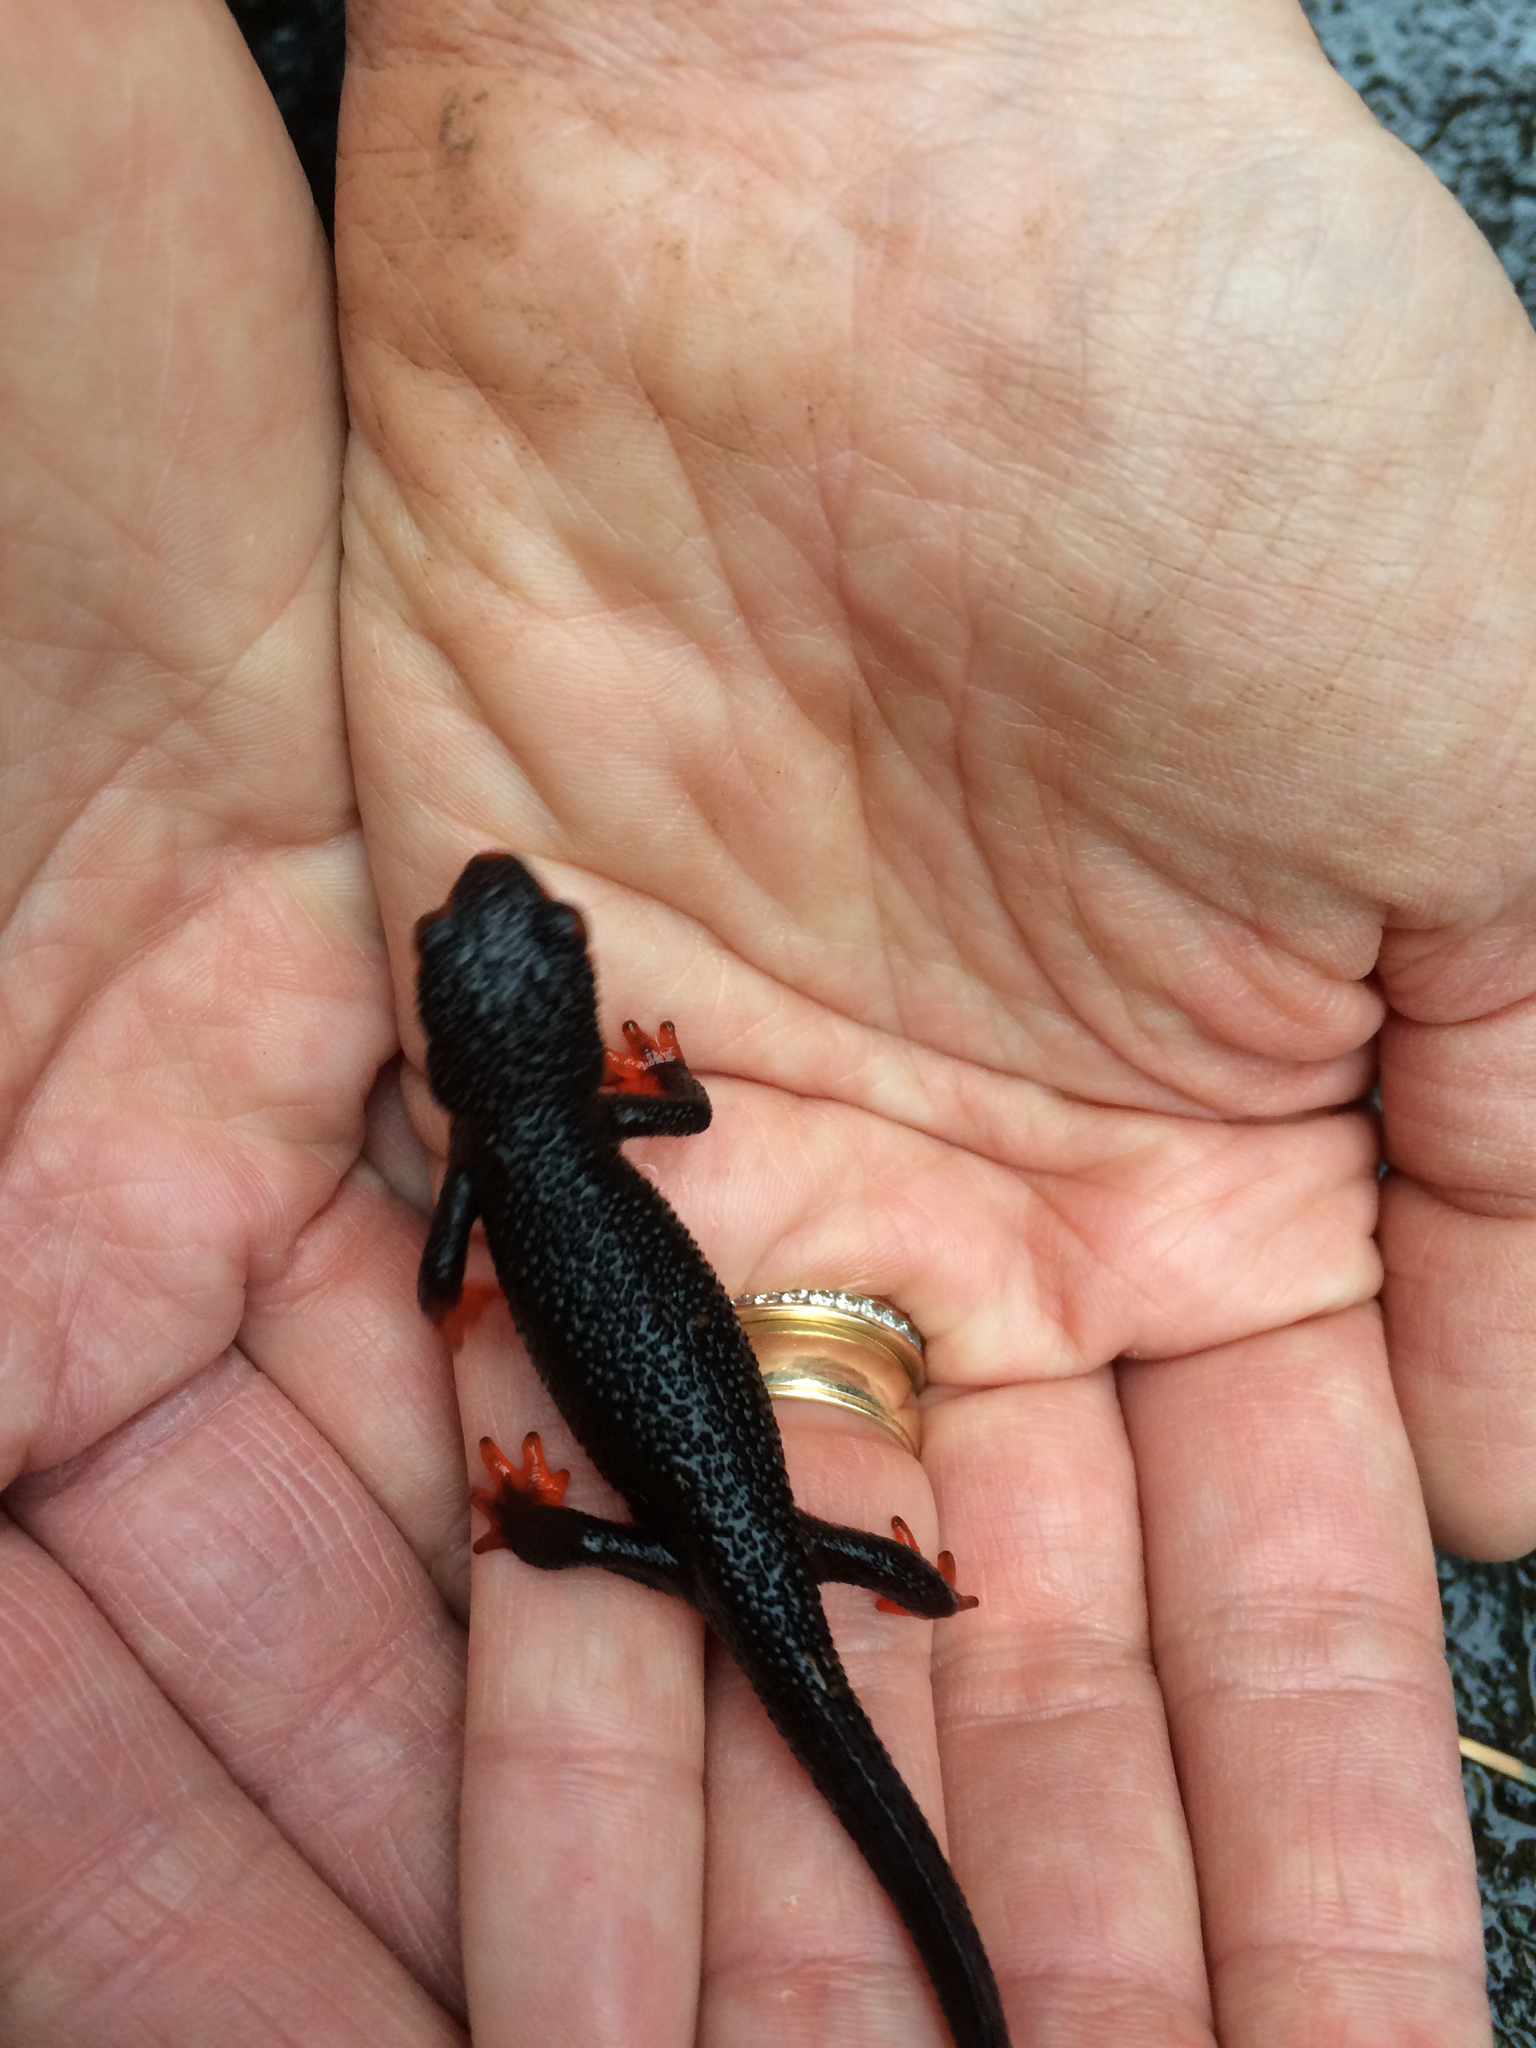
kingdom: Animalia
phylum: Chordata
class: Amphibia
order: Caudata
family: Salamandridae
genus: Taricha
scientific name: Taricha rivularis
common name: Red-bellied newt
